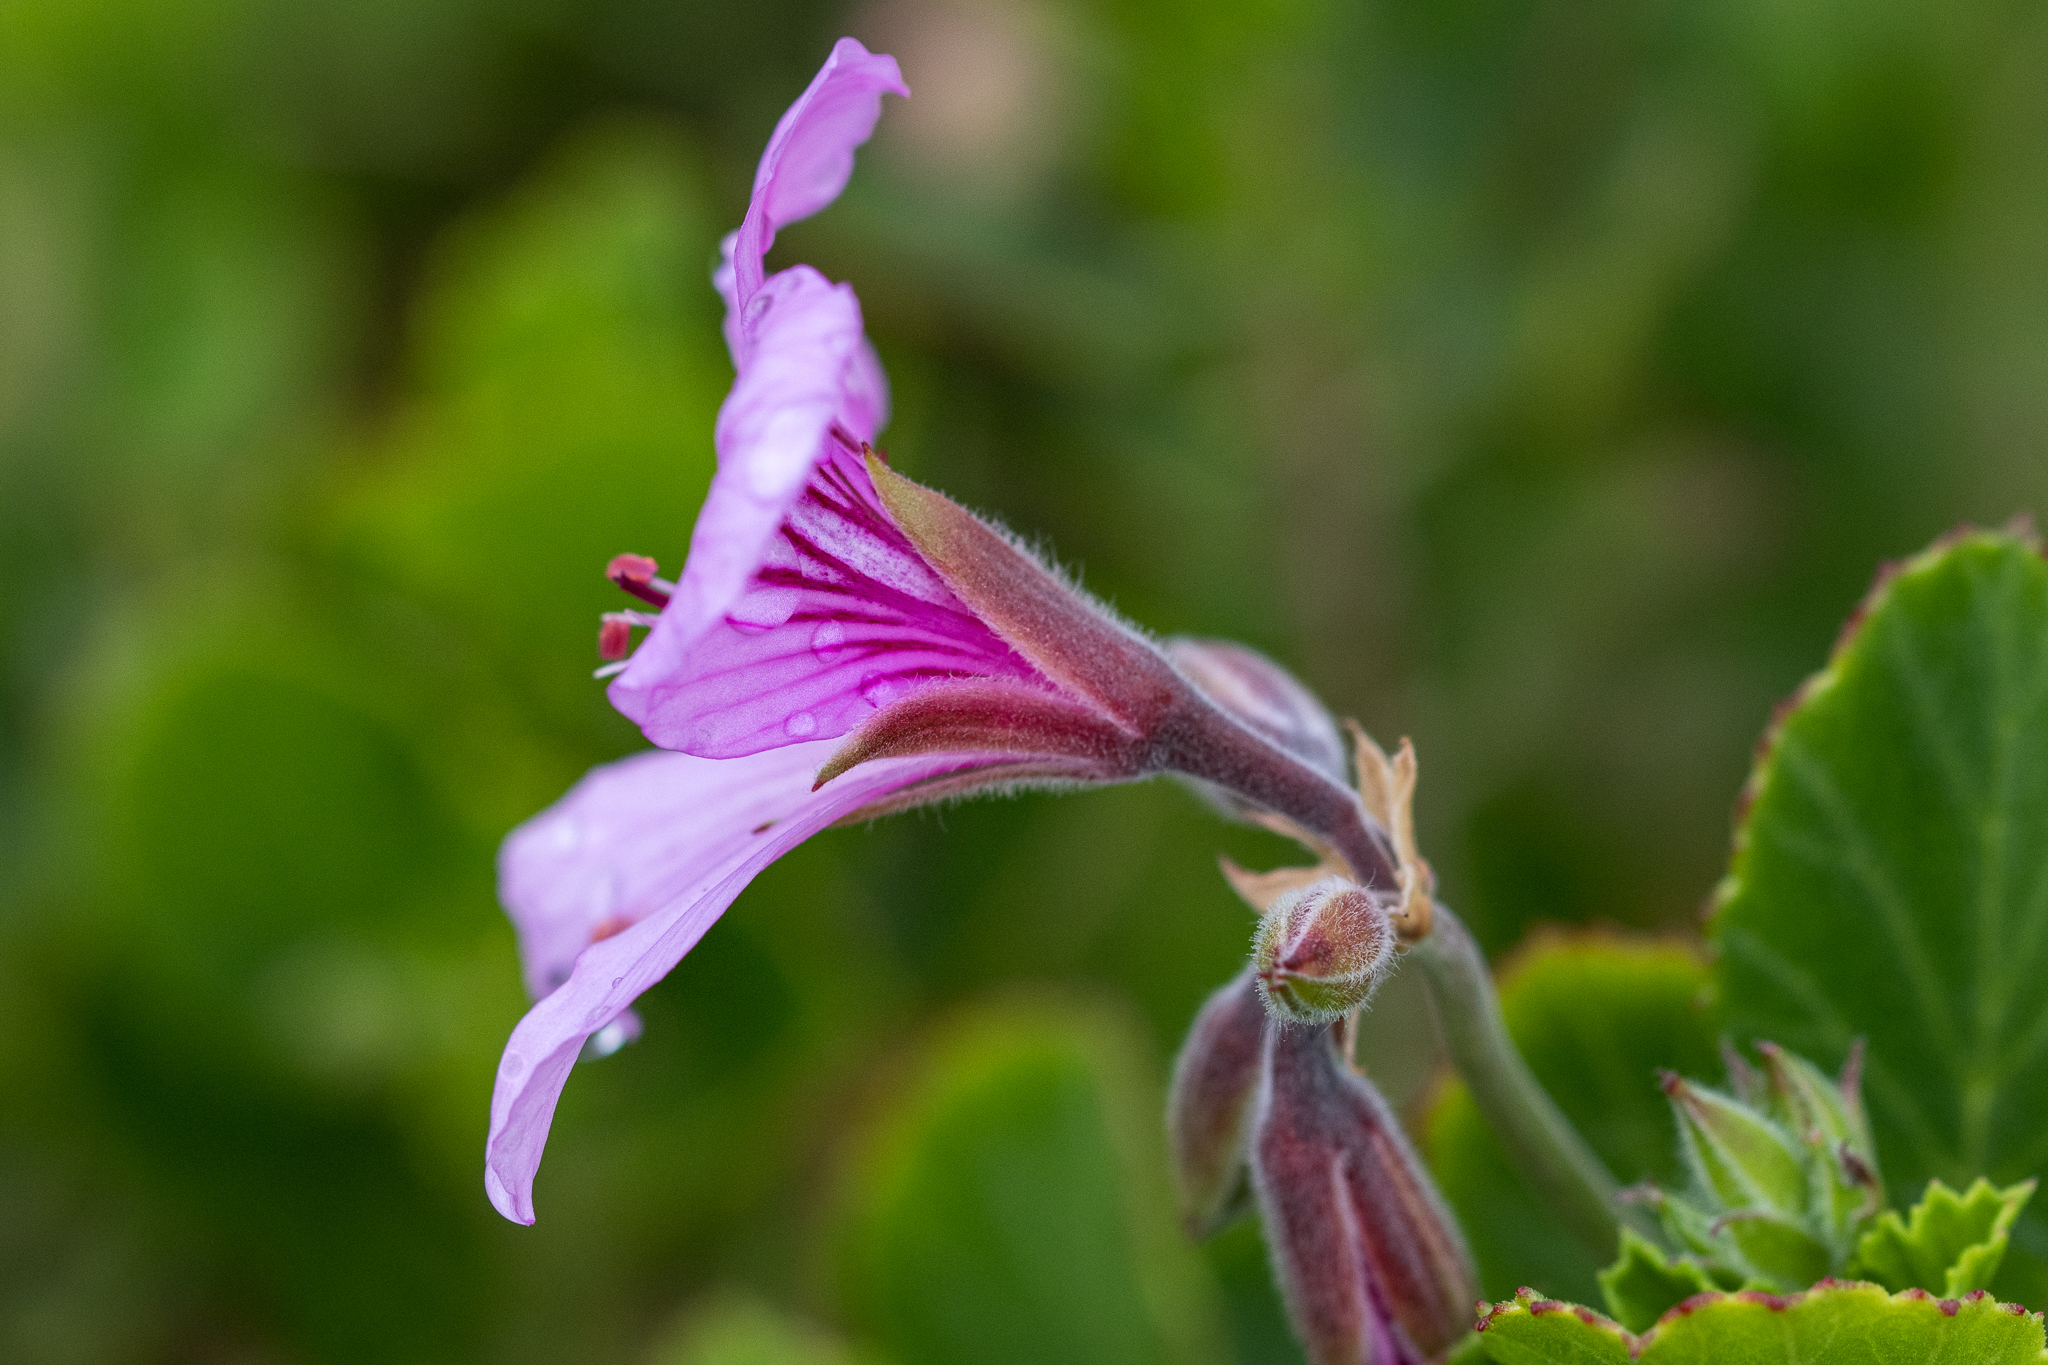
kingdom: Plantae
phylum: Tracheophyta
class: Magnoliopsida
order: Geraniales
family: Geraniaceae
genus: Pelargonium
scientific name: Pelargonium betulinum
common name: Birch-leaf pelargonium
